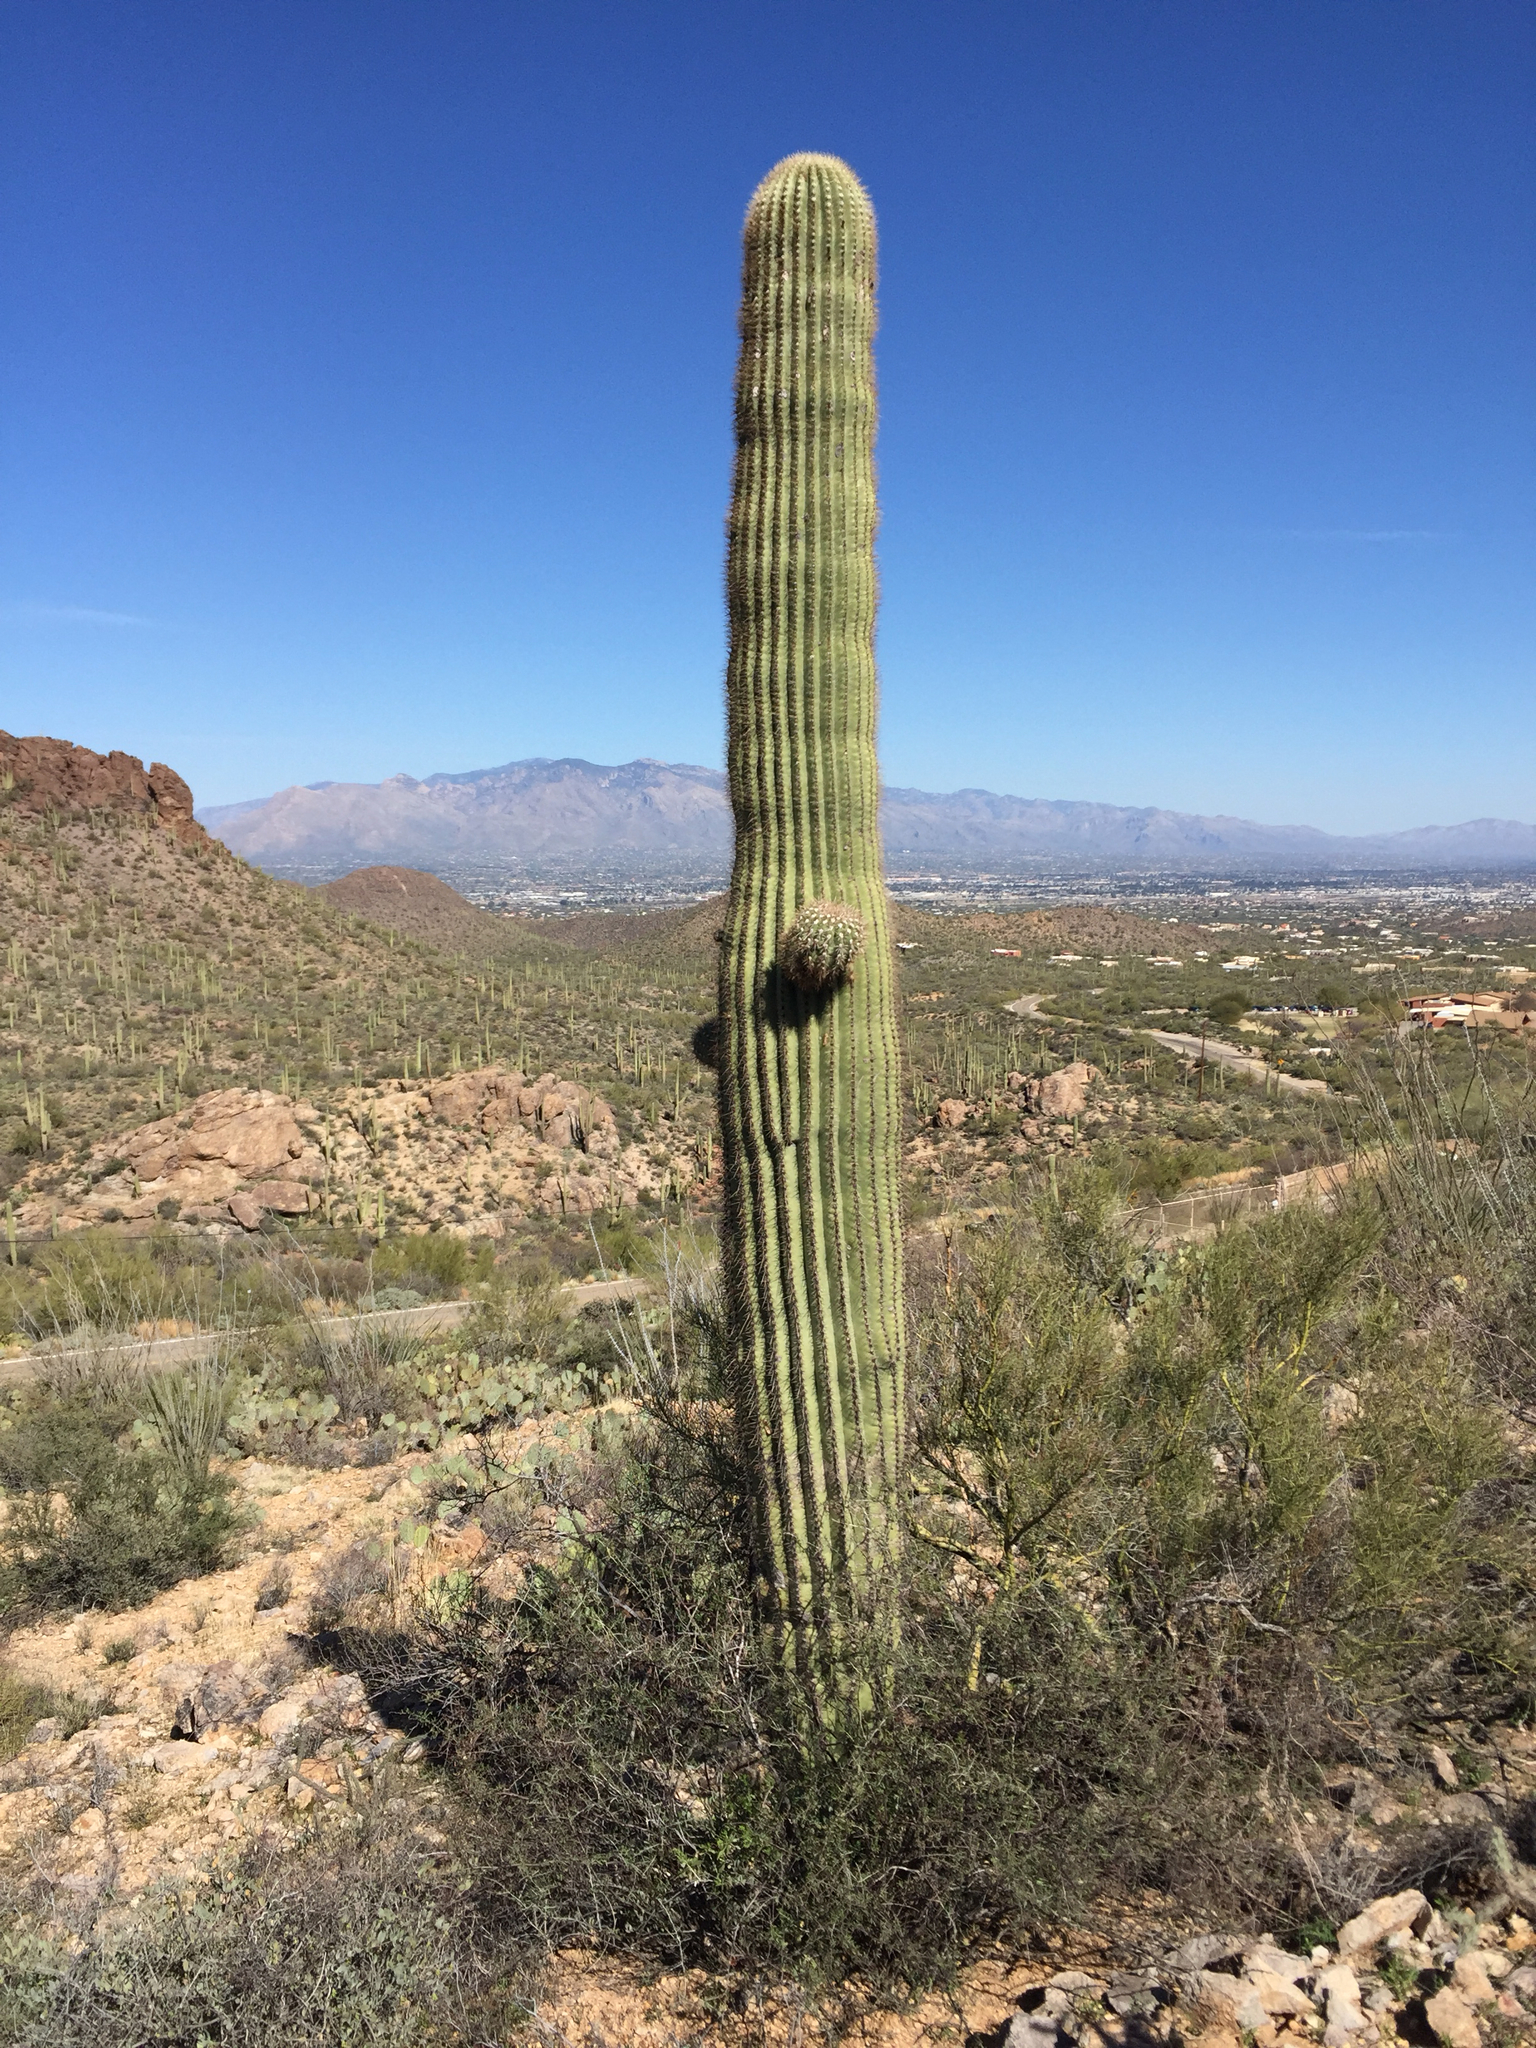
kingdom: Plantae
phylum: Tracheophyta
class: Magnoliopsida
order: Caryophyllales
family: Cactaceae
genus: Carnegiea
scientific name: Carnegiea gigantea
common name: Saguaro
